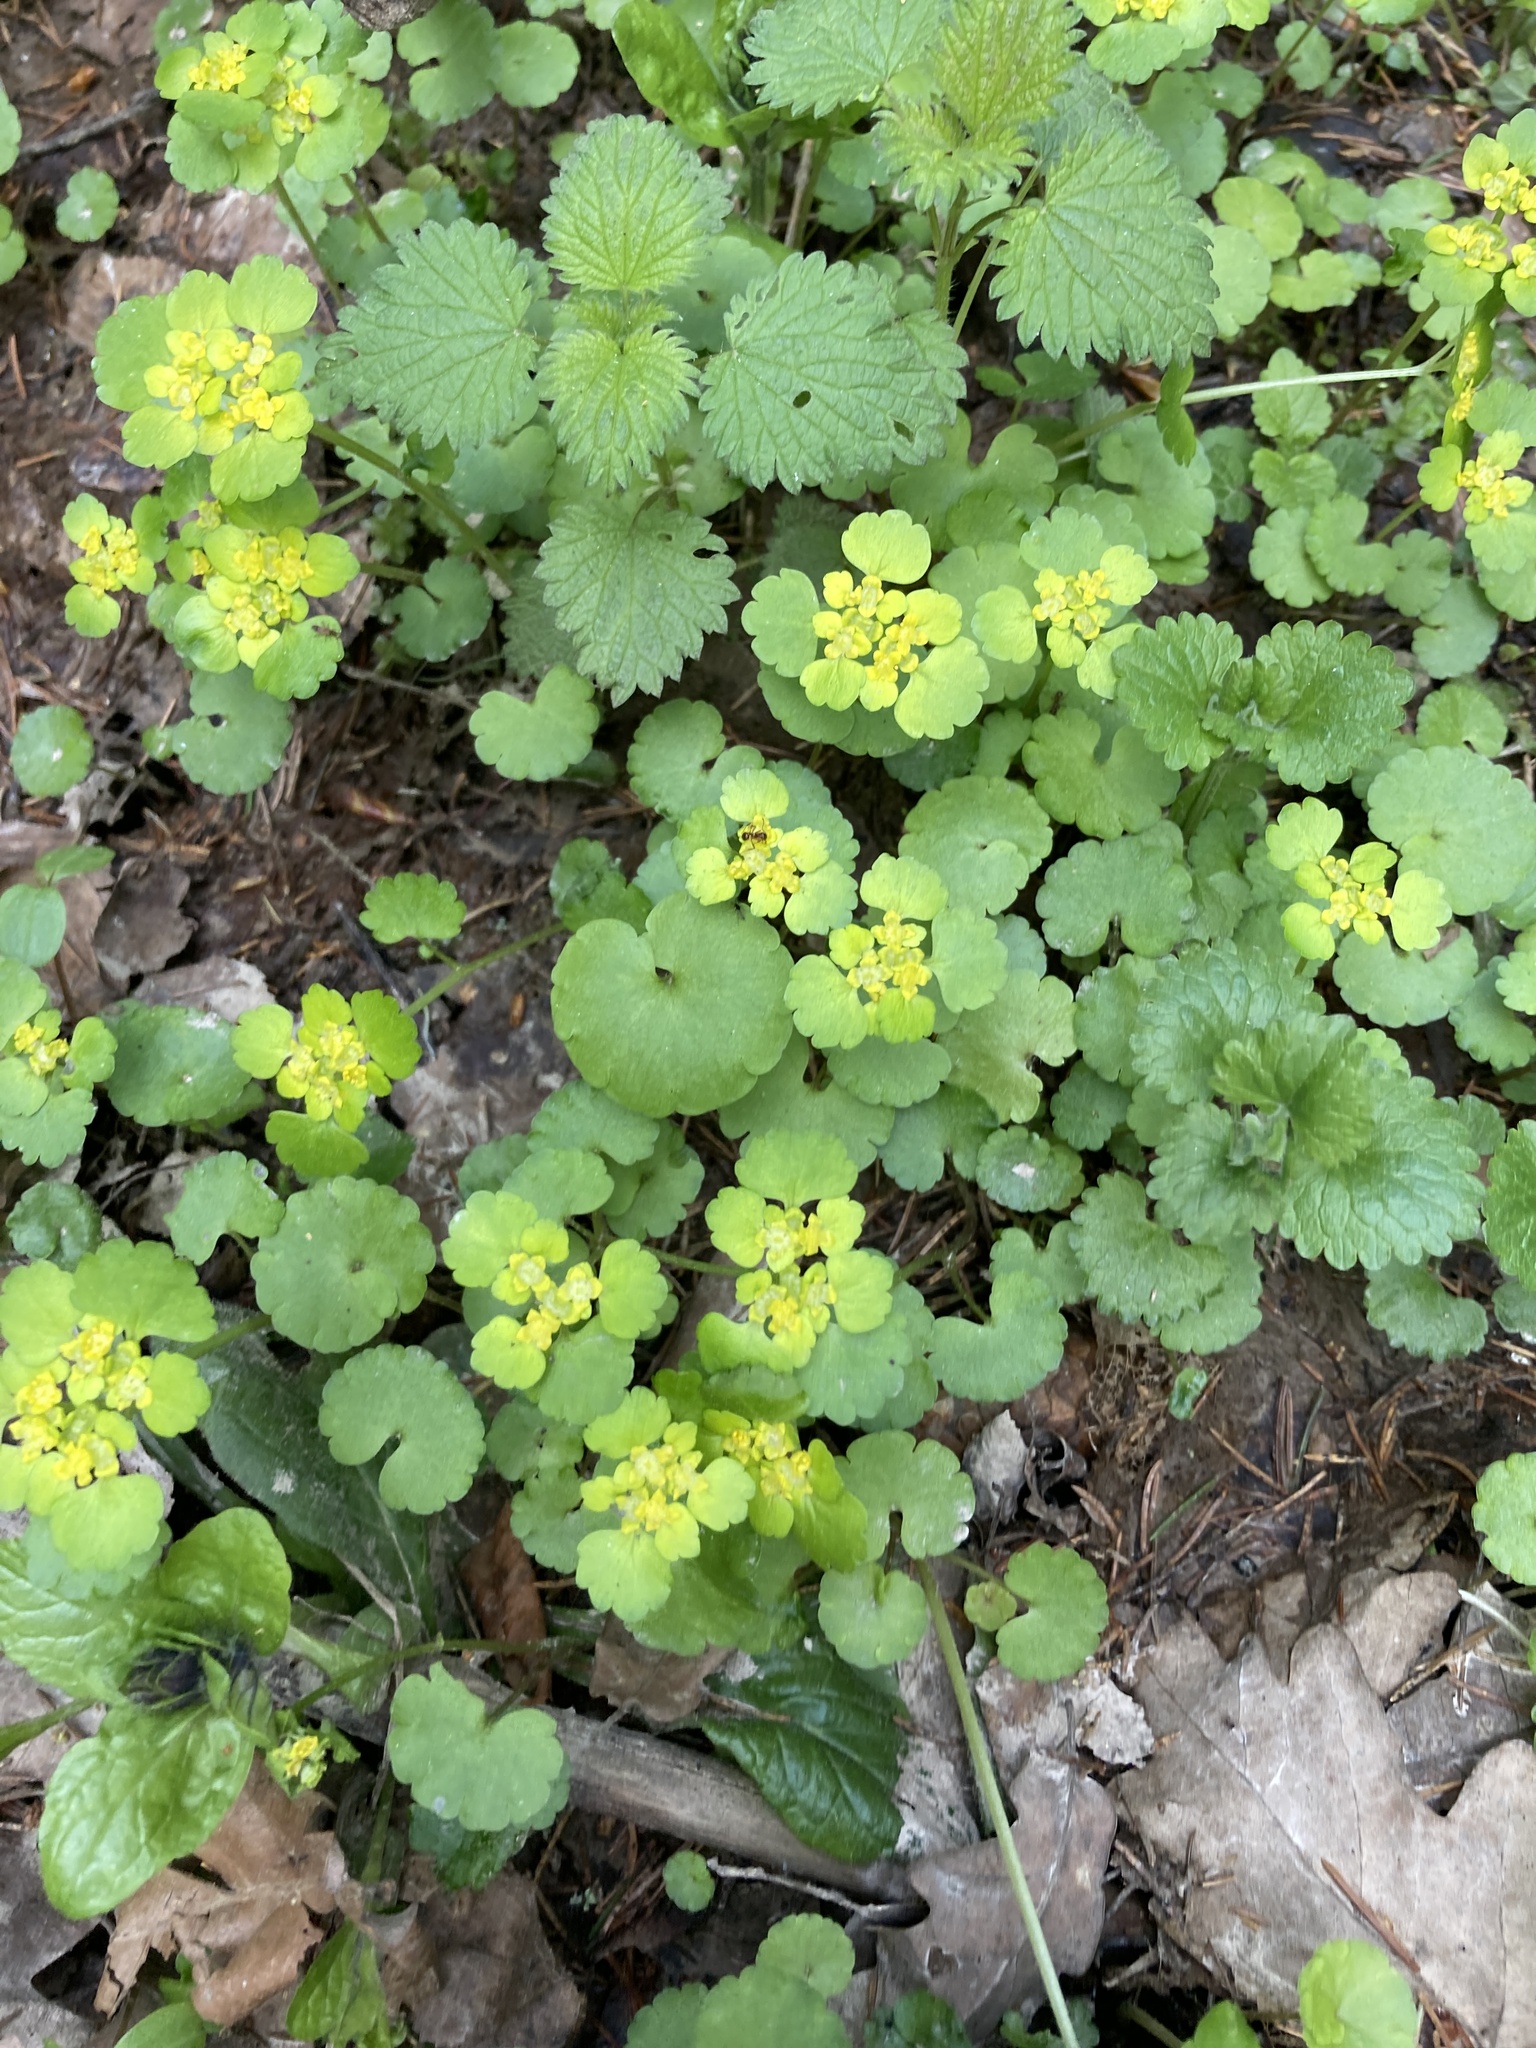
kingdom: Plantae
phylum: Tracheophyta
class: Magnoliopsida
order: Saxifragales
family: Saxifragaceae
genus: Chrysosplenium
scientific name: Chrysosplenium alternifolium
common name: Alternate-leaved golden-saxifrage
